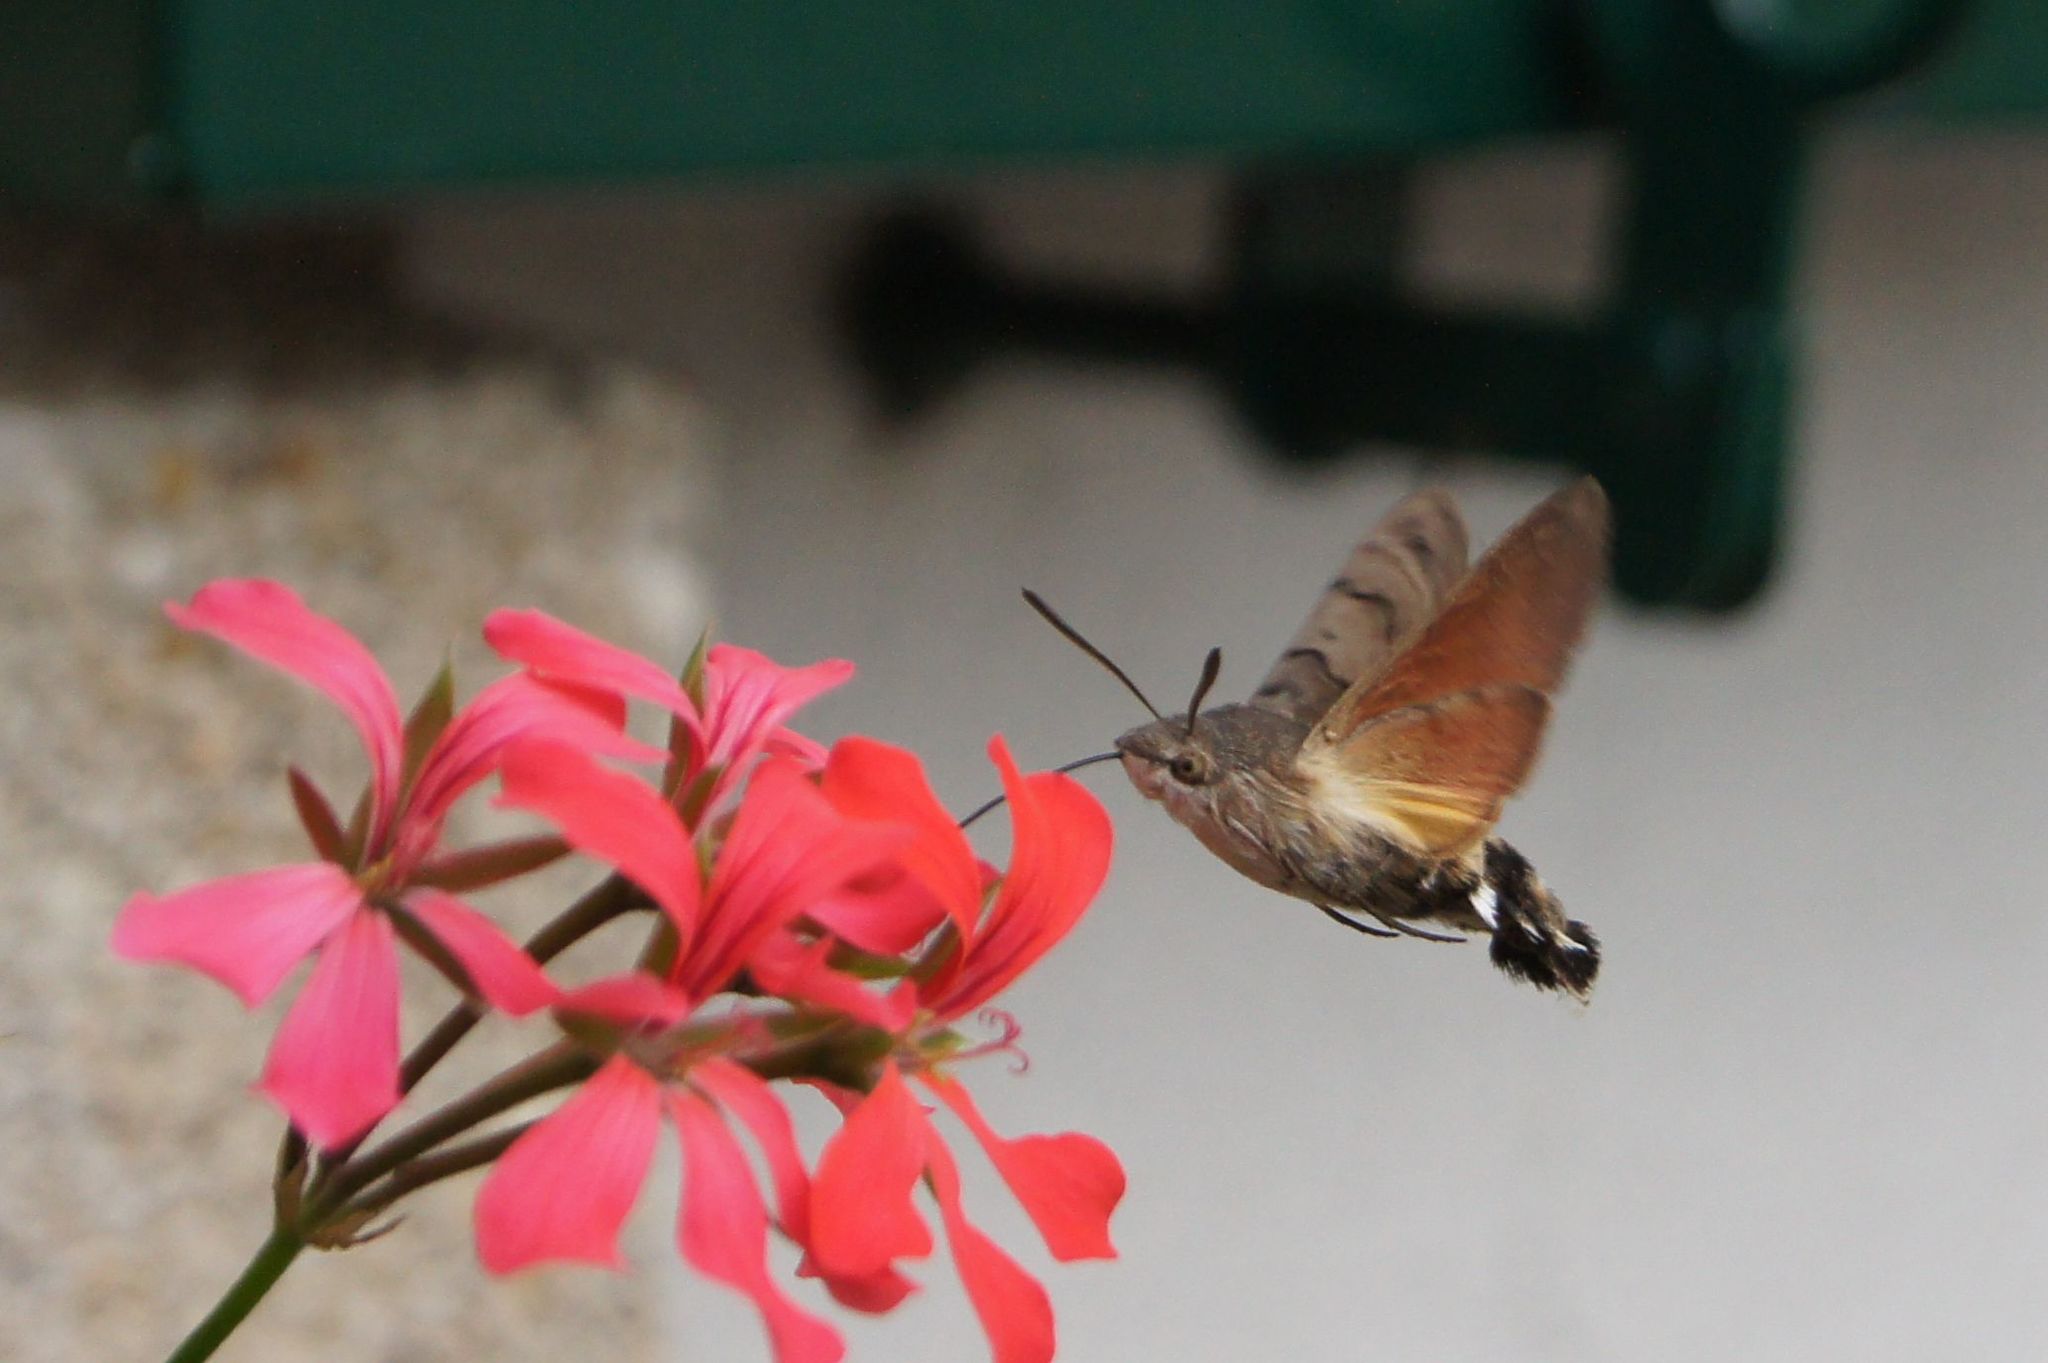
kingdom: Animalia
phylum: Arthropoda
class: Insecta
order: Lepidoptera
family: Sphingidae
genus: Macroglossum
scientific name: Macroglossum stellatarum
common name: Humming-bird hawk-moth
